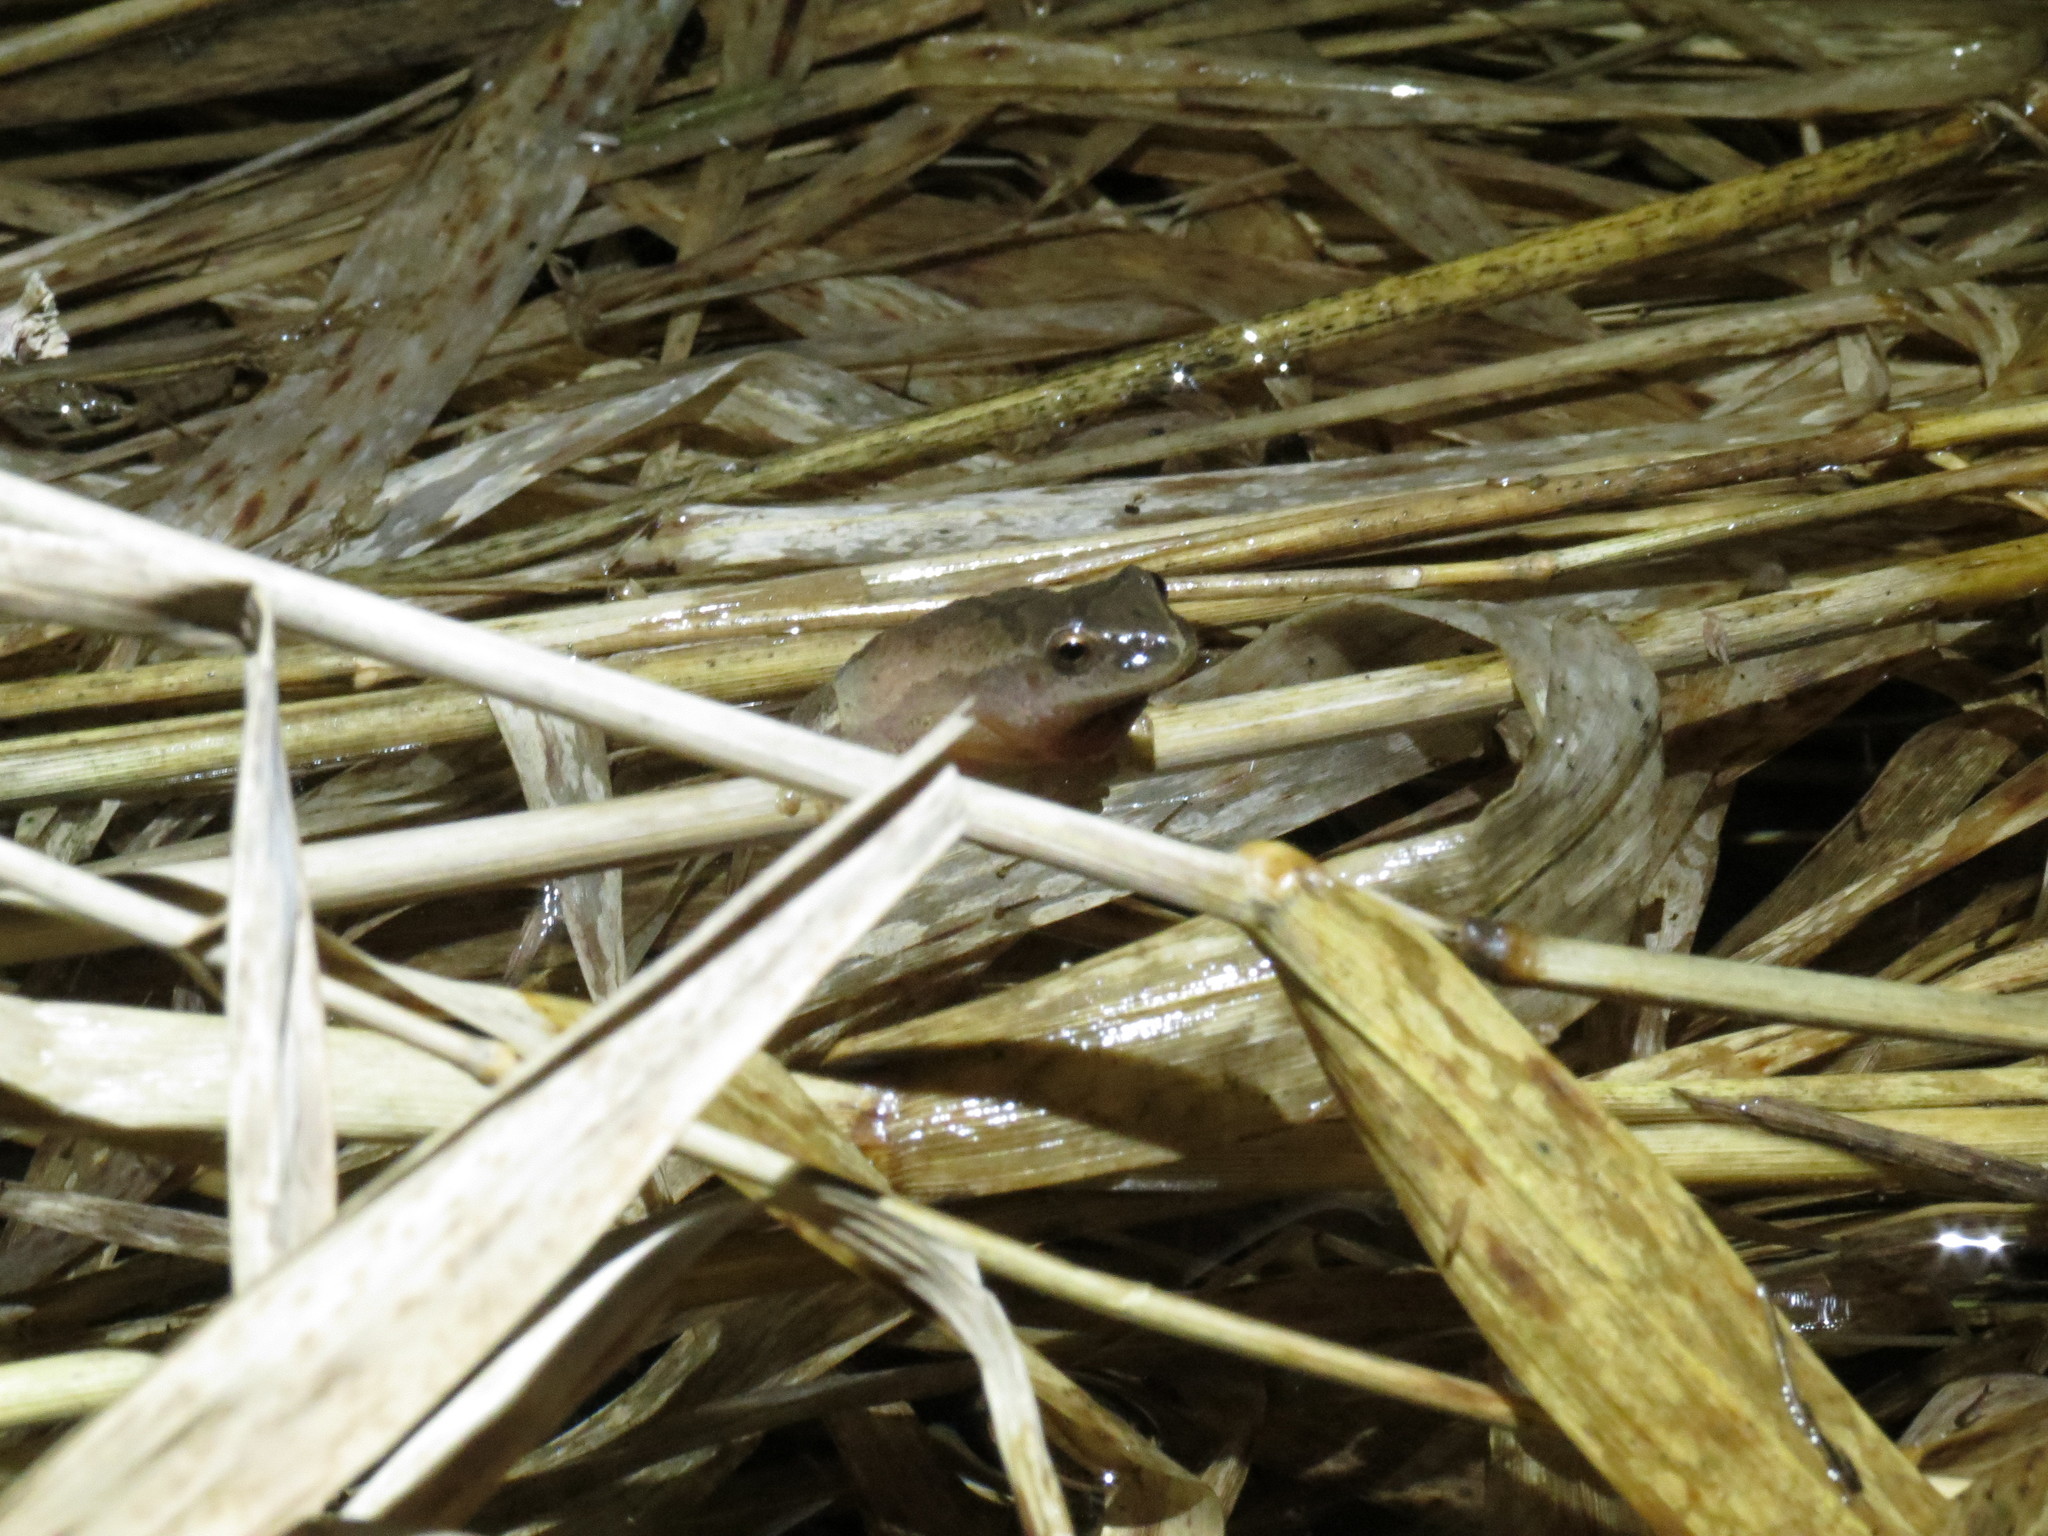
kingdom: Animalia
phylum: Chordata
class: Amphibia
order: Anura
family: Hylidae
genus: Pseudacris
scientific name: Pseudacris crucifer
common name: Spring peeper
